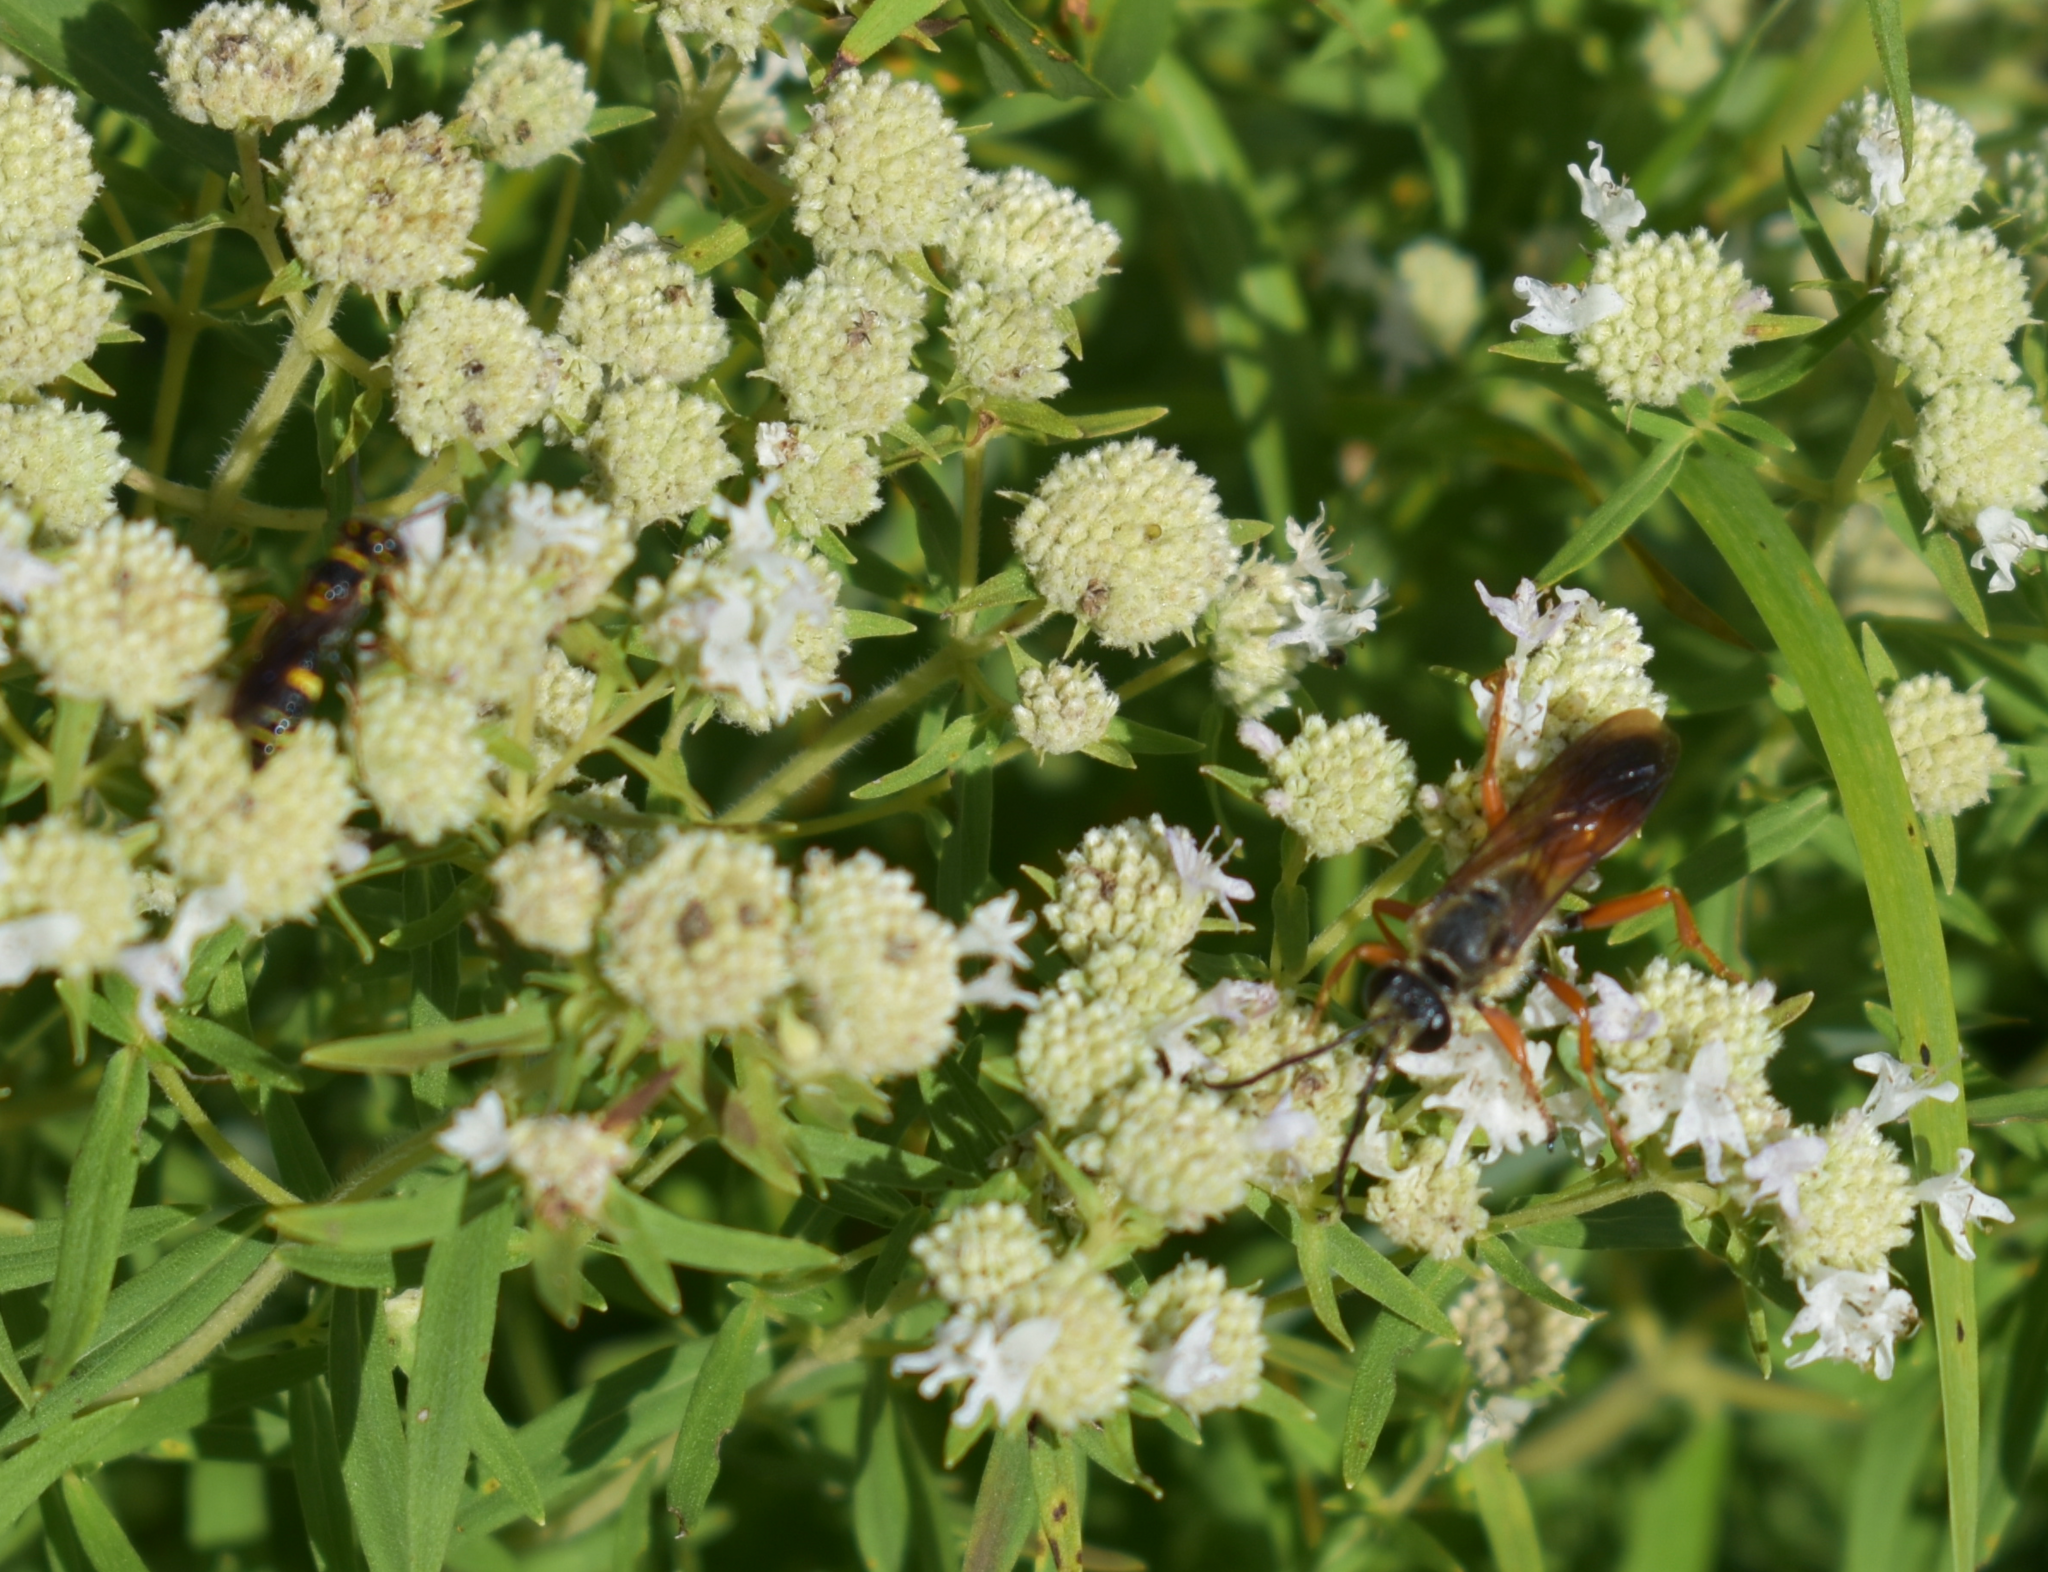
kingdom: Animalia
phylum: Arthropoda
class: Insecta
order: Hymenoptera
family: Sphecidae
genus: Sphex
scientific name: Sphex ichneumoneus
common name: Great golden digger wasp
